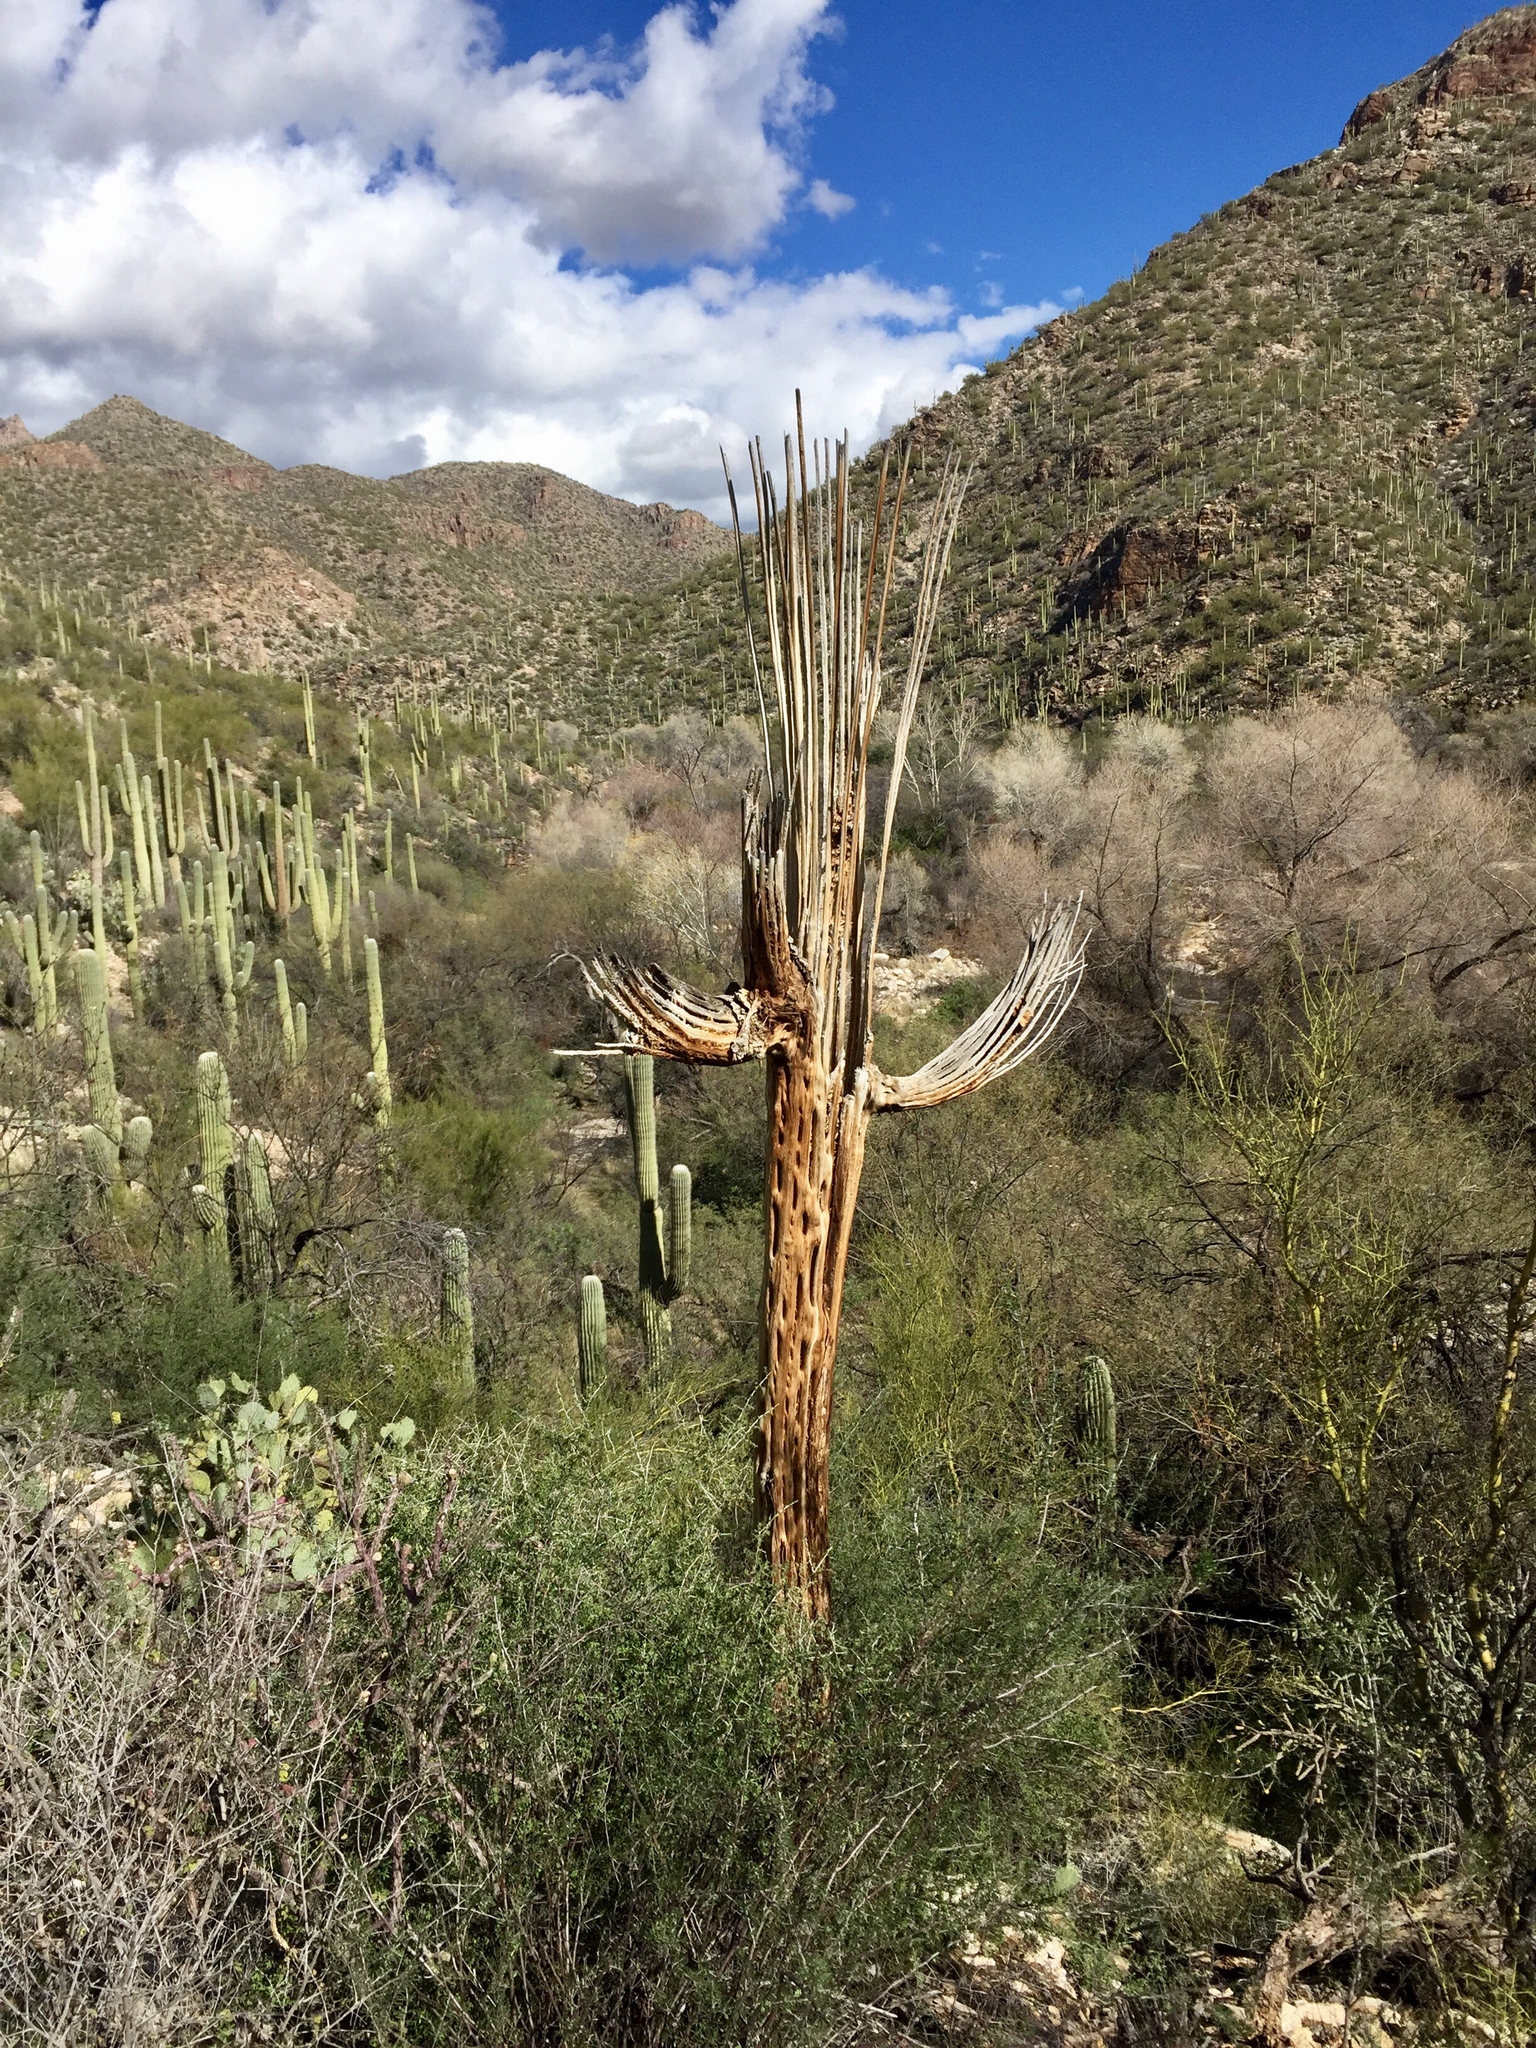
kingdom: Plantae
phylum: Tracheophyta
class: Magnoliopsida
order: Caryophyllales
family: Cactaceae
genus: Carnegiea
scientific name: Carnegiea gigantea
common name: Saguaro
